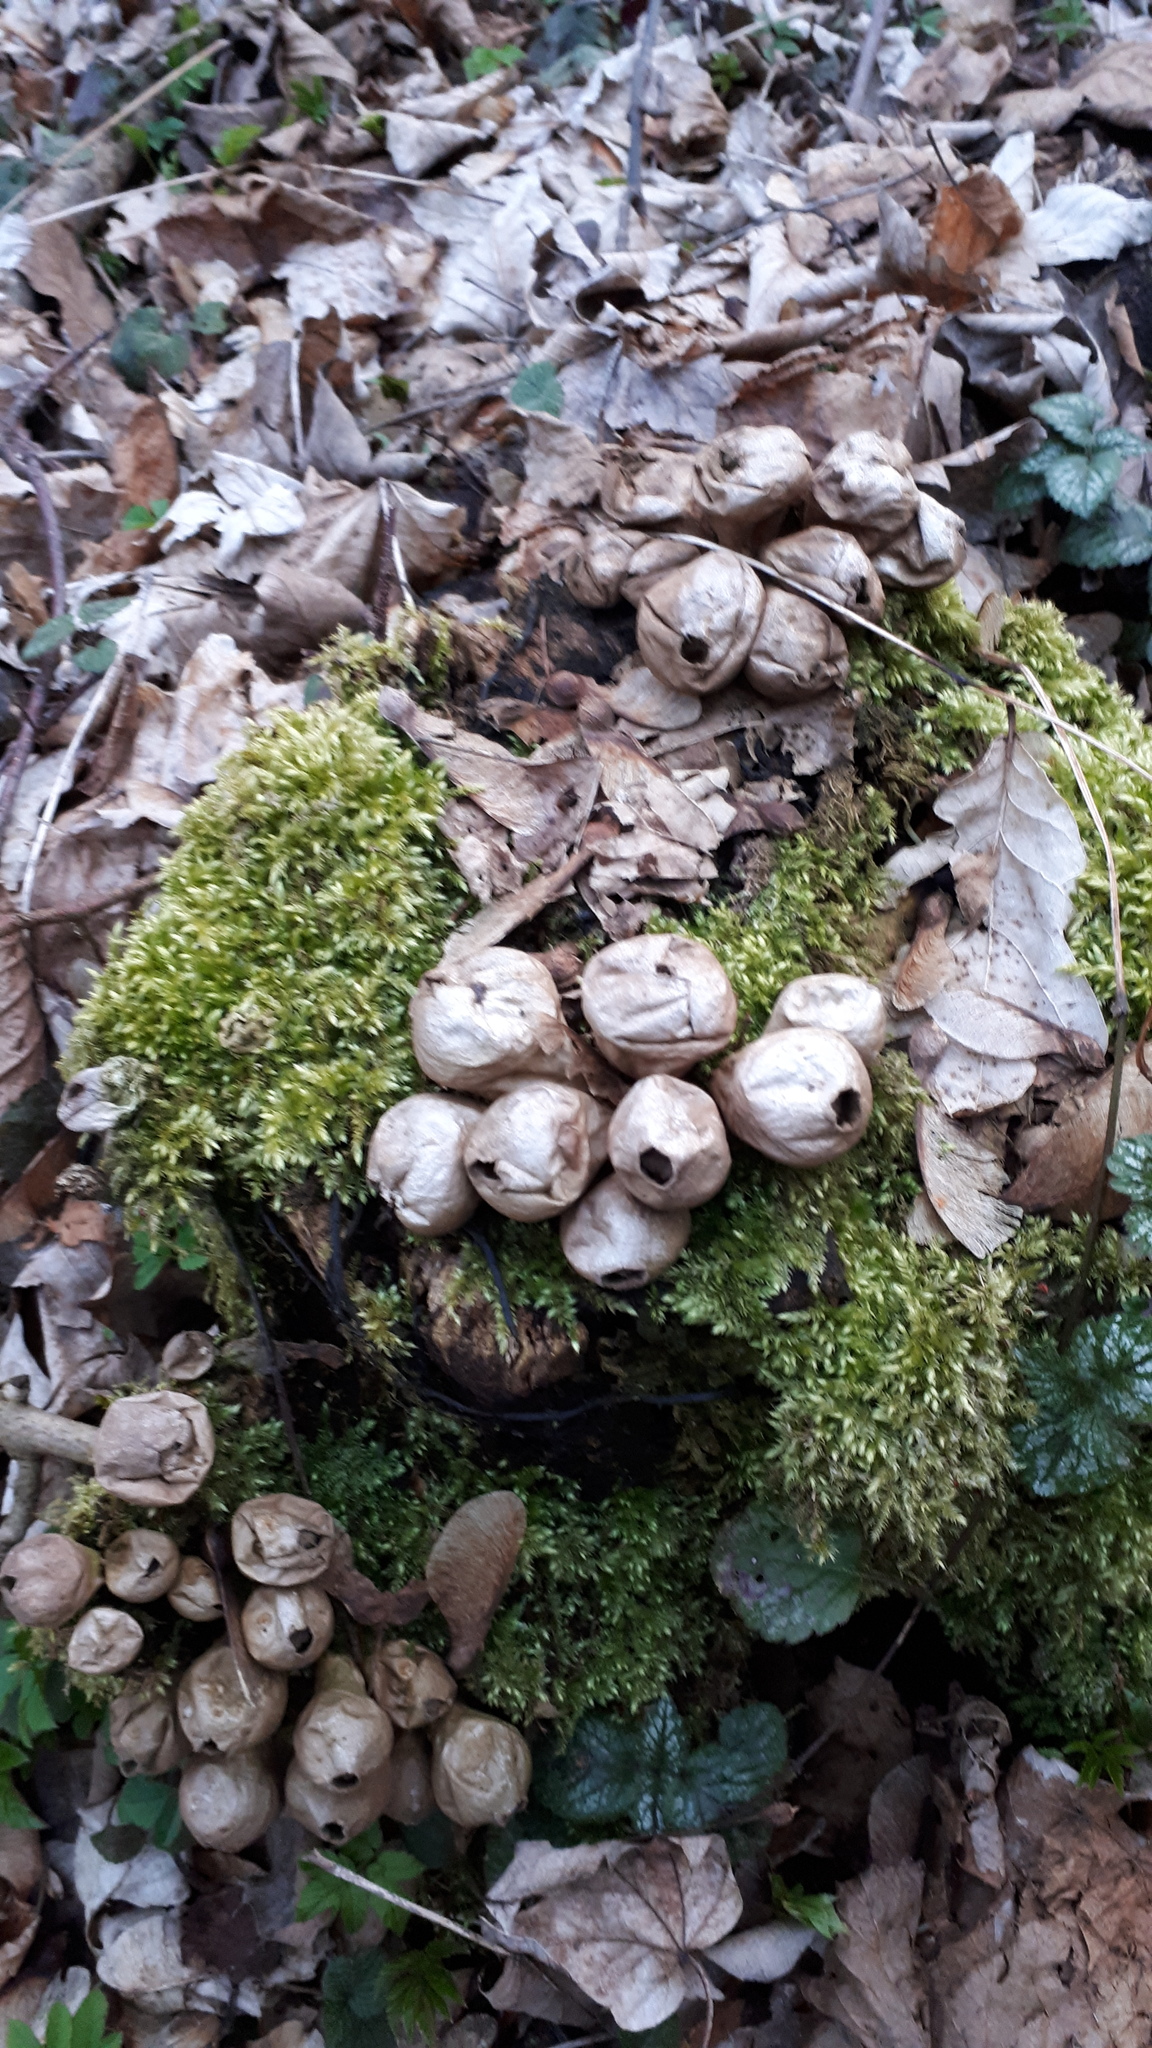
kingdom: Fungi
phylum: Basidiomycota
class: Agaricomycetes
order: Agaricales
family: Lycoperdaceae
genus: Apioperdon
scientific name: Apioperdon pyriforme
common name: Pear-shaped puffball
